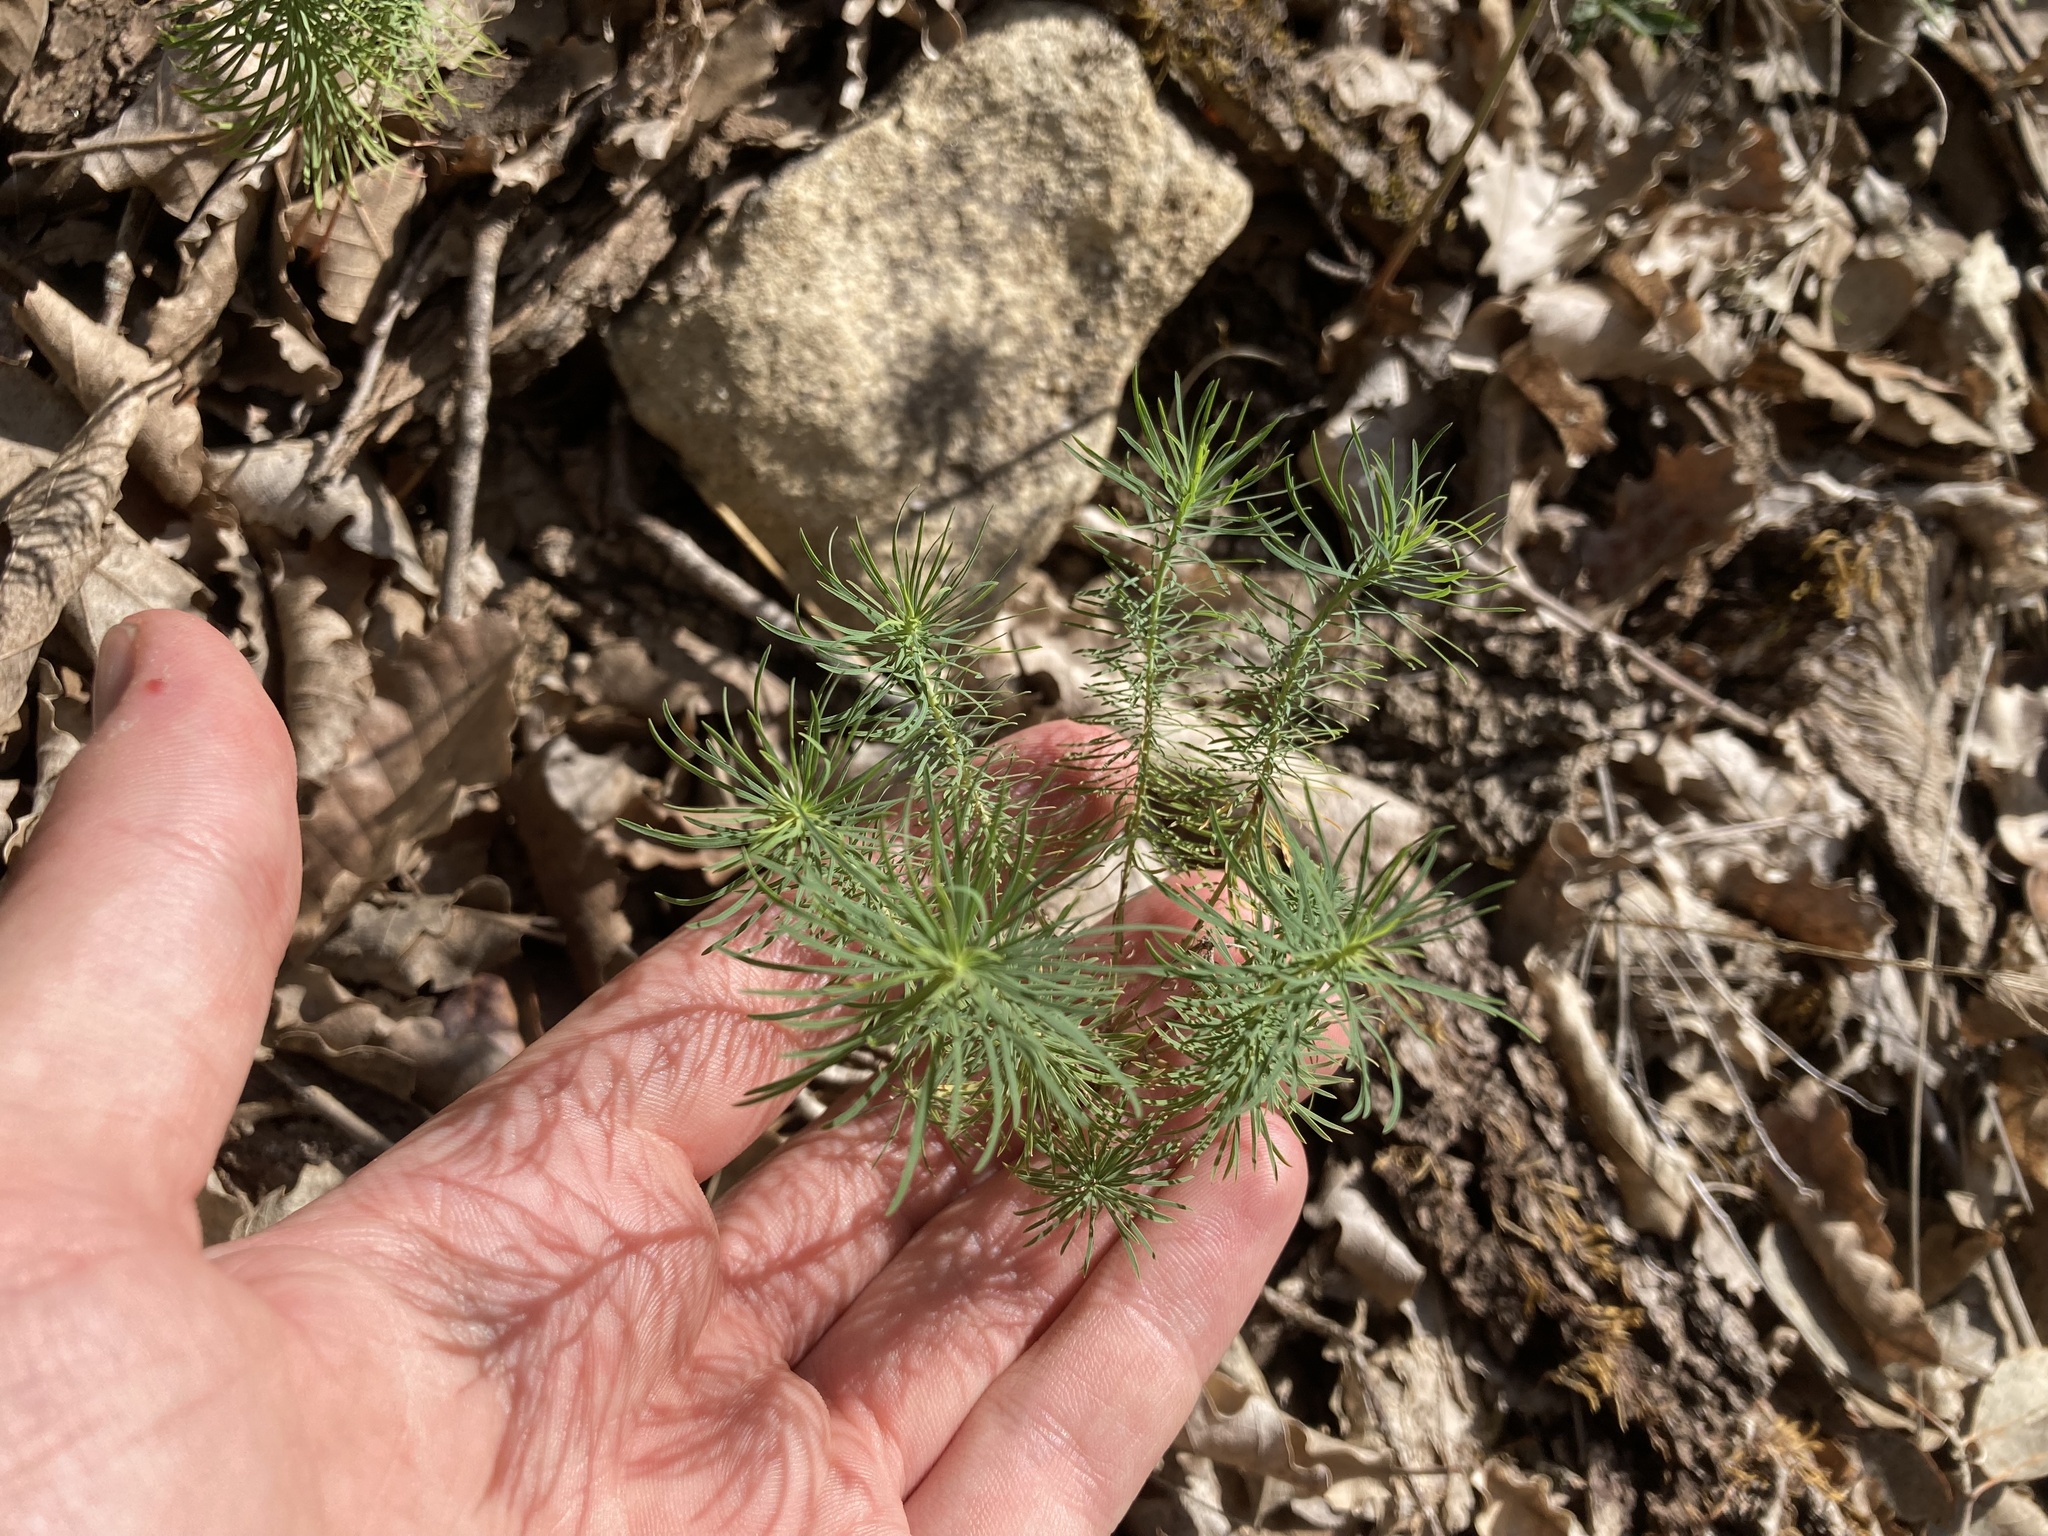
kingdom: Plantae
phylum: Tracheophyta
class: Magnoliopsida
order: Malpighiales
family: Euphorbiaceae
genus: Euphorbia
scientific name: Euphorbia cyparissias
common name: Cypress spurge
